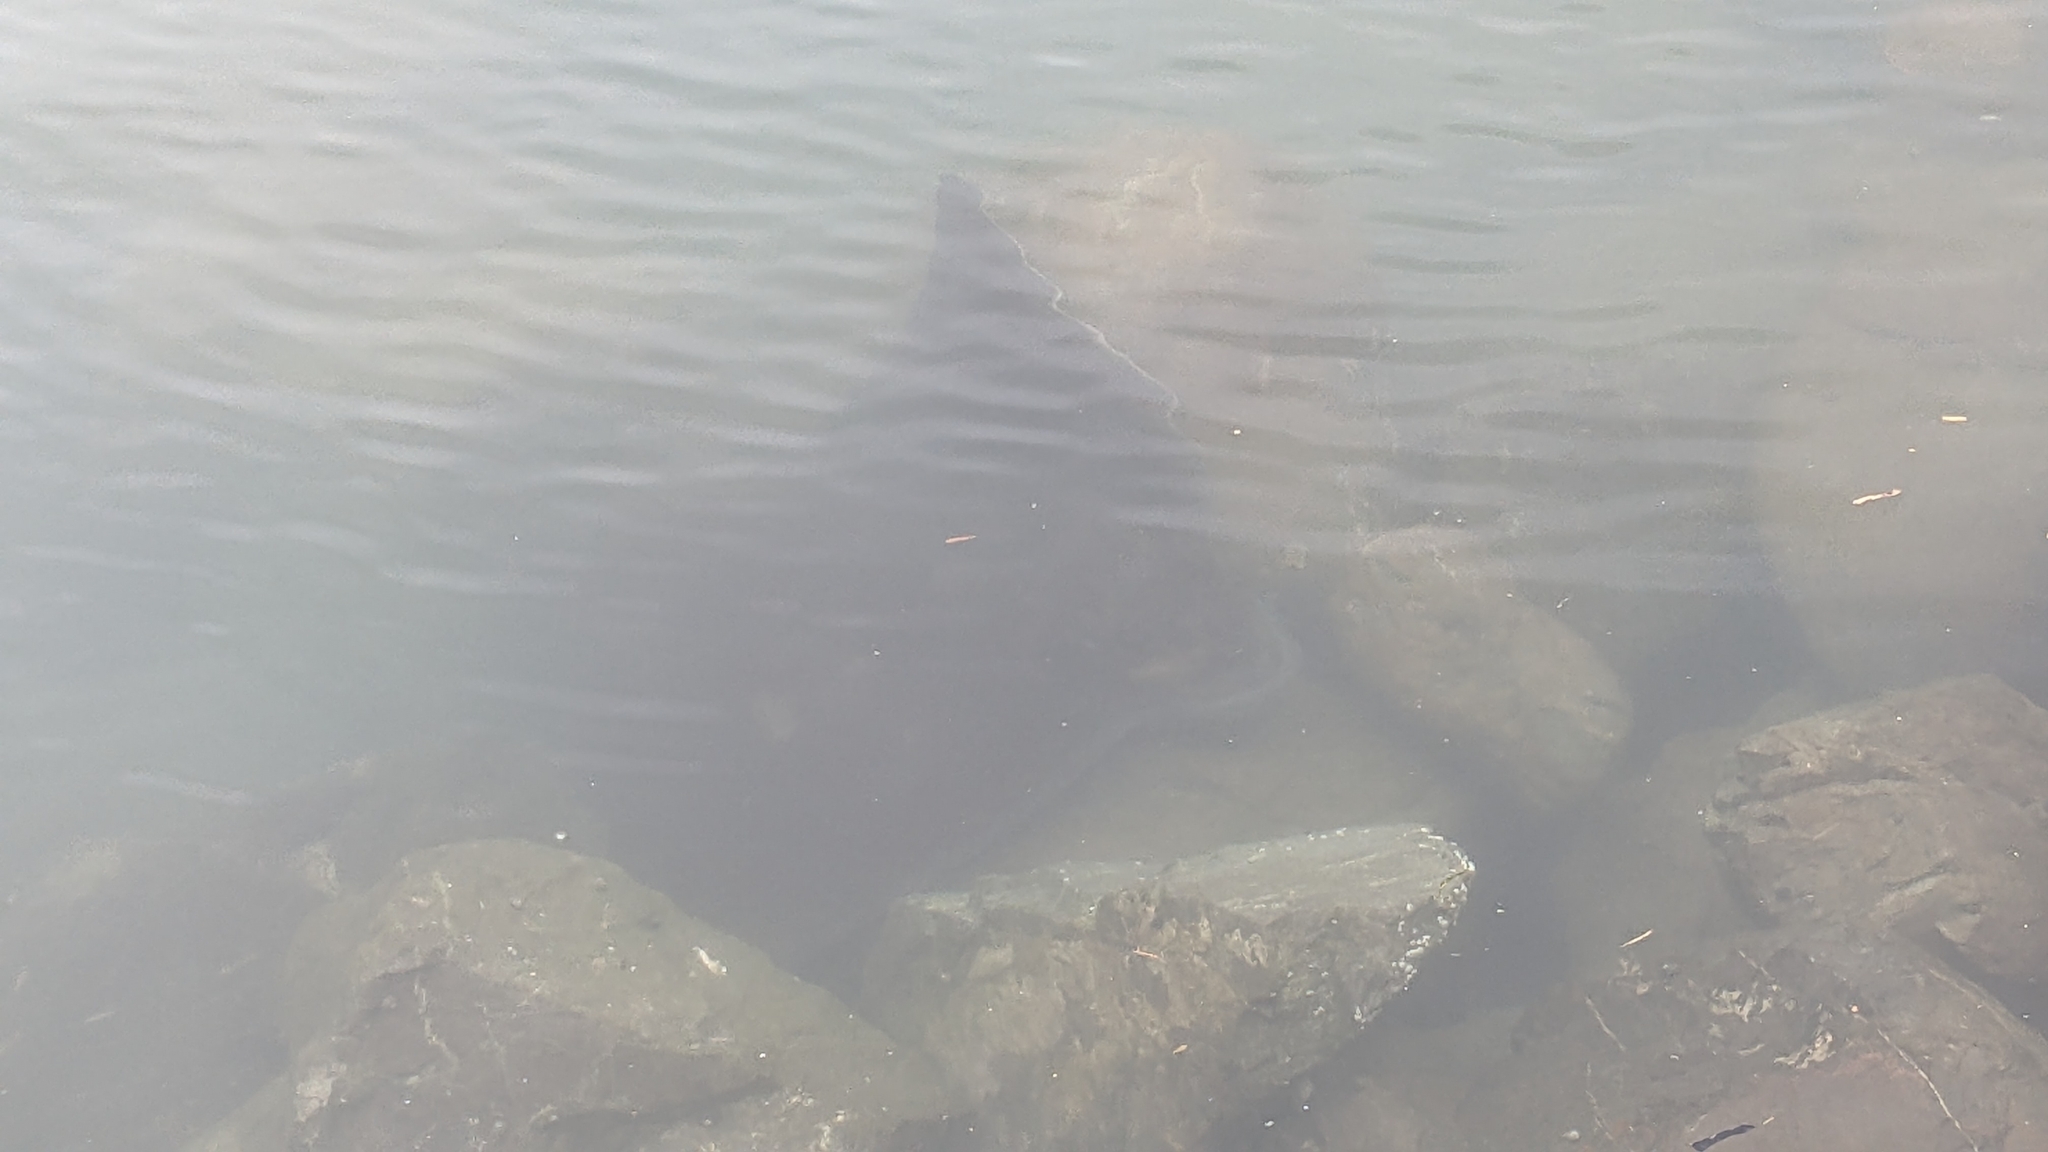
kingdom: Animalia
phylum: Chordata
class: Elasmobranchii
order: Myliobatiformes
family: Myliobatidae
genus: Myliobatis
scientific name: Myliobatis tenuicaudatus
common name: Eagle ray
